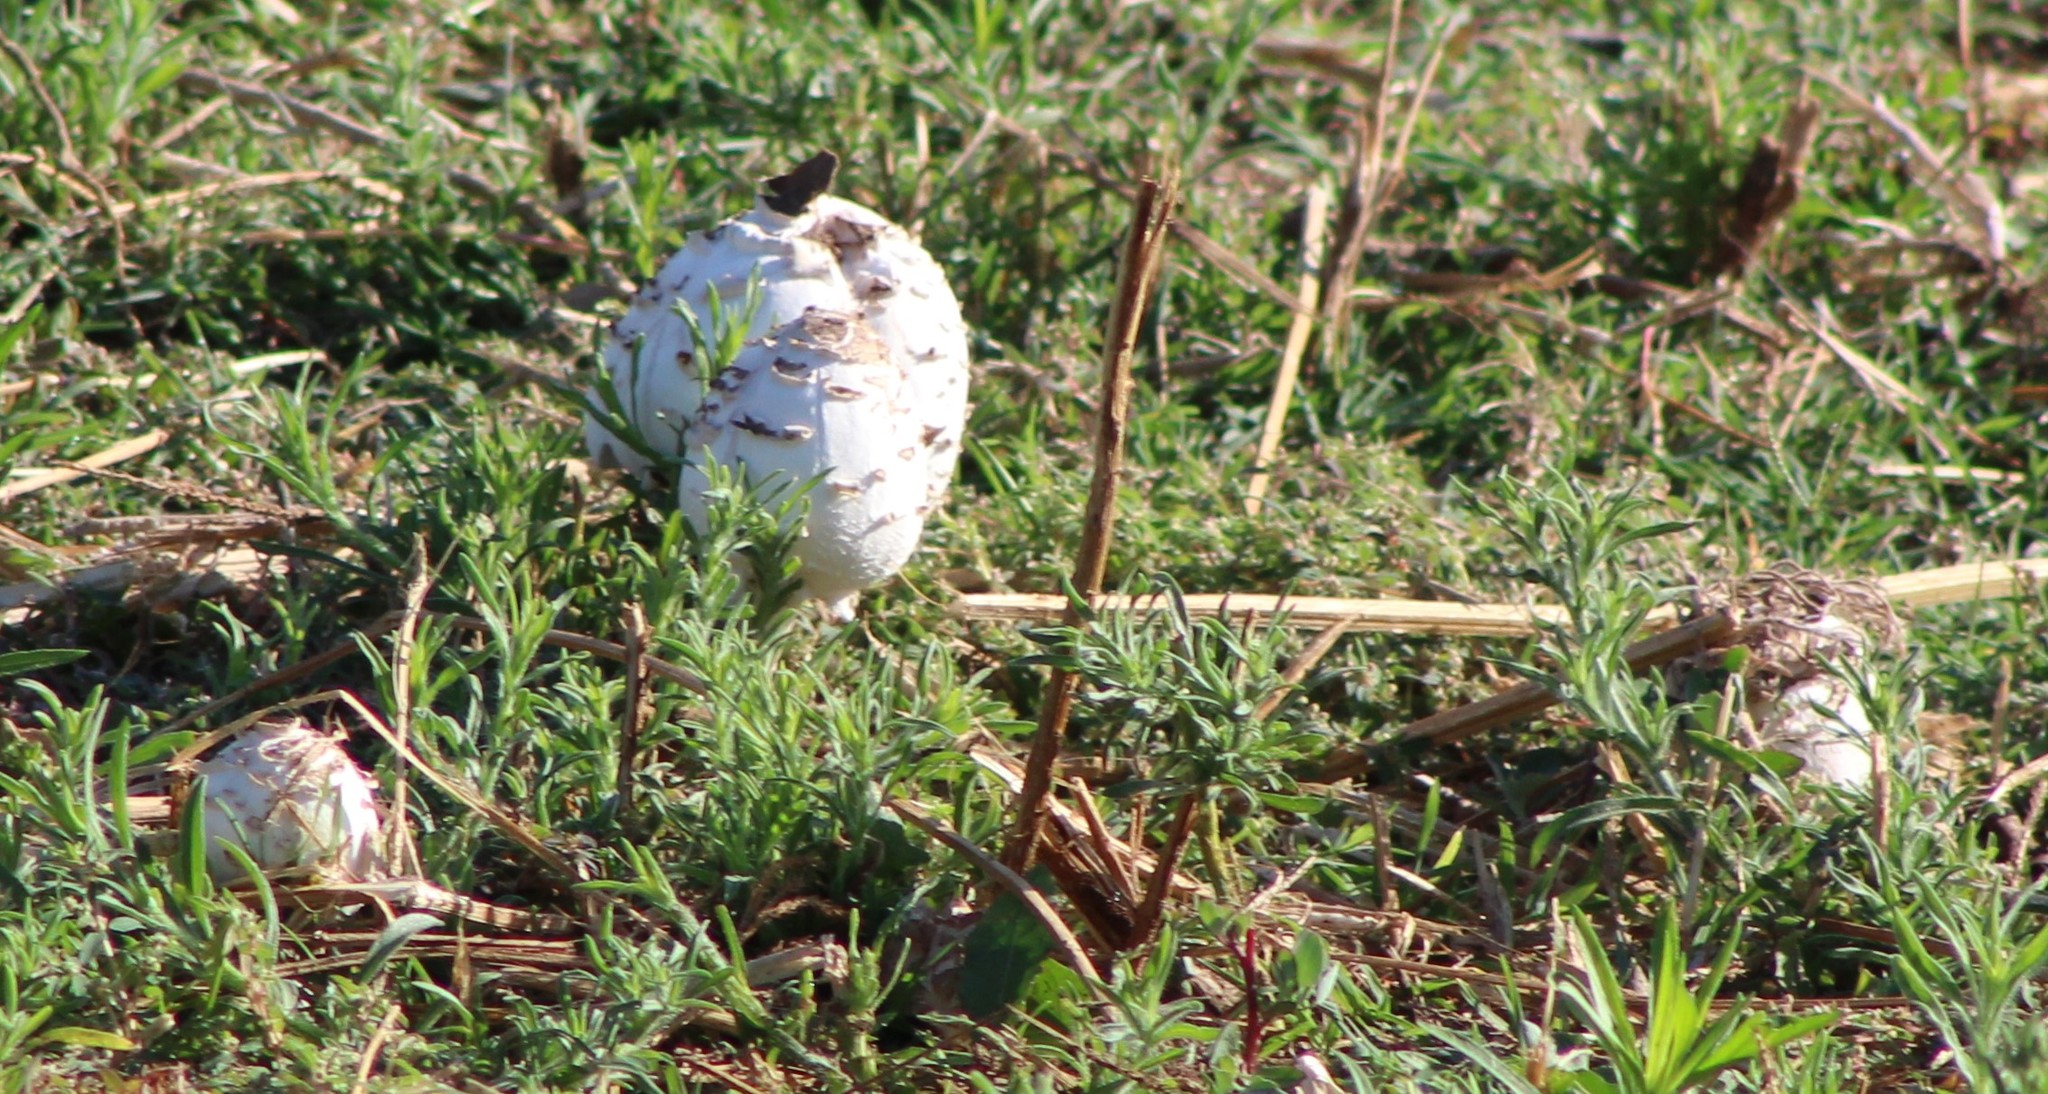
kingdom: Fungi
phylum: Basidiomycota
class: Agaricomycetes
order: Agaricales
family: Agaricaceae
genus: Chlorophyllum
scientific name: Chlorophyllum molybdites
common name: False parasol
